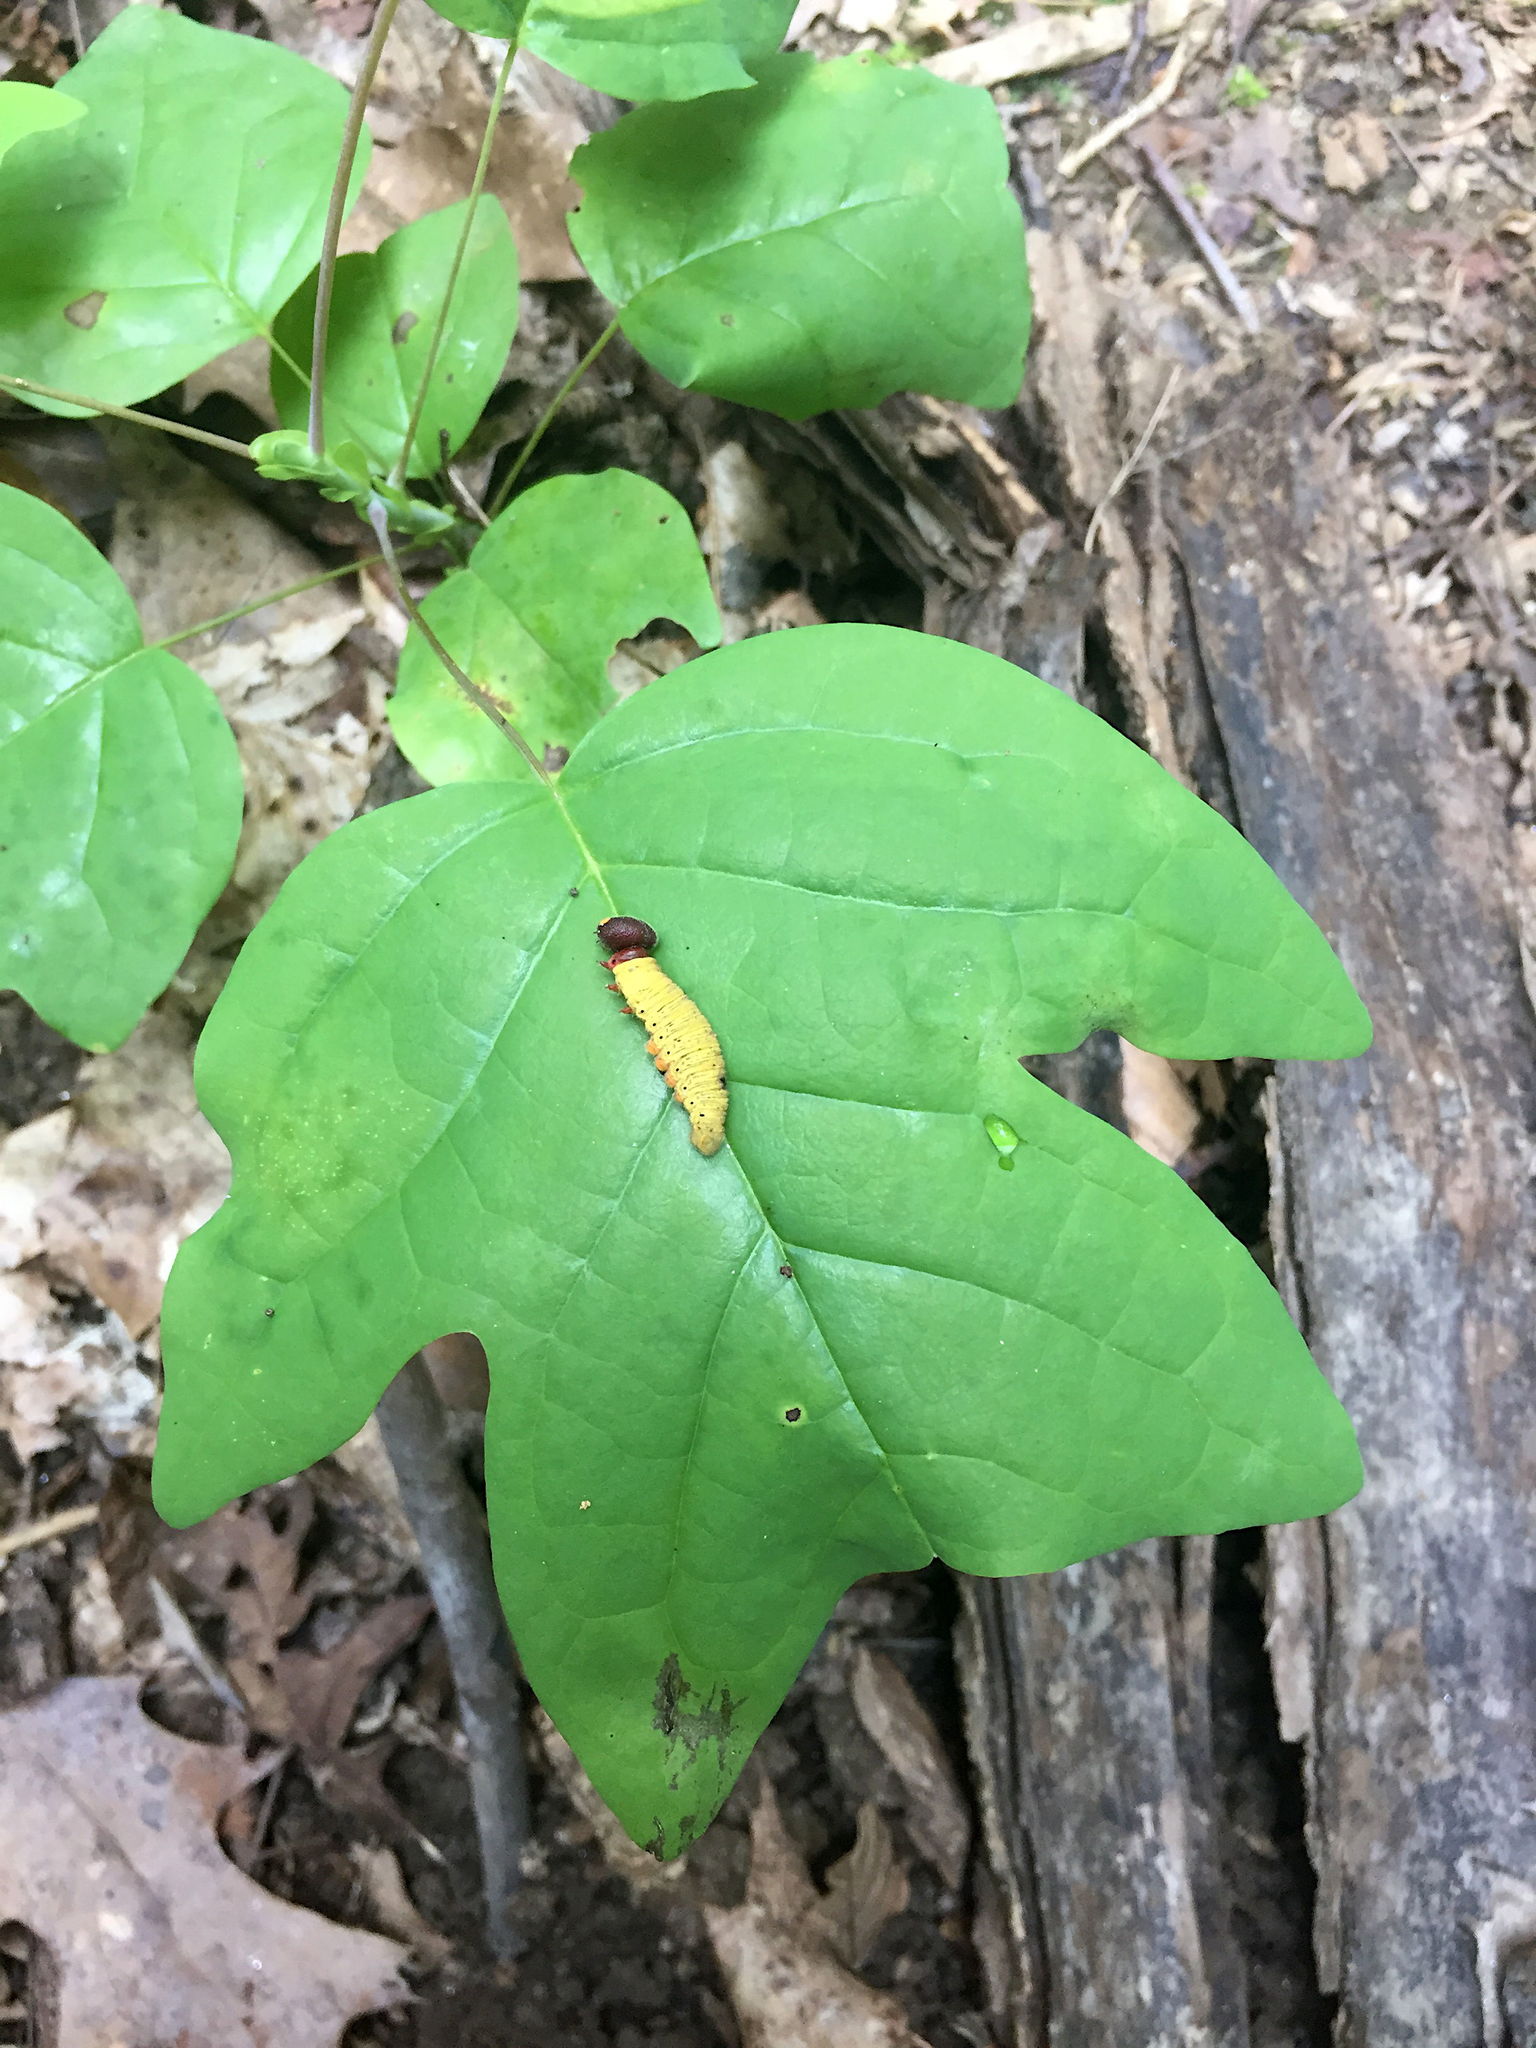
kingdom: Plantae
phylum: Tracheophyta
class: Magnoliopsida
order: Magnoliales
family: Magnoliaceae
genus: Liriodendron
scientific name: Liriodendron tulipifera
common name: Tulip tree
